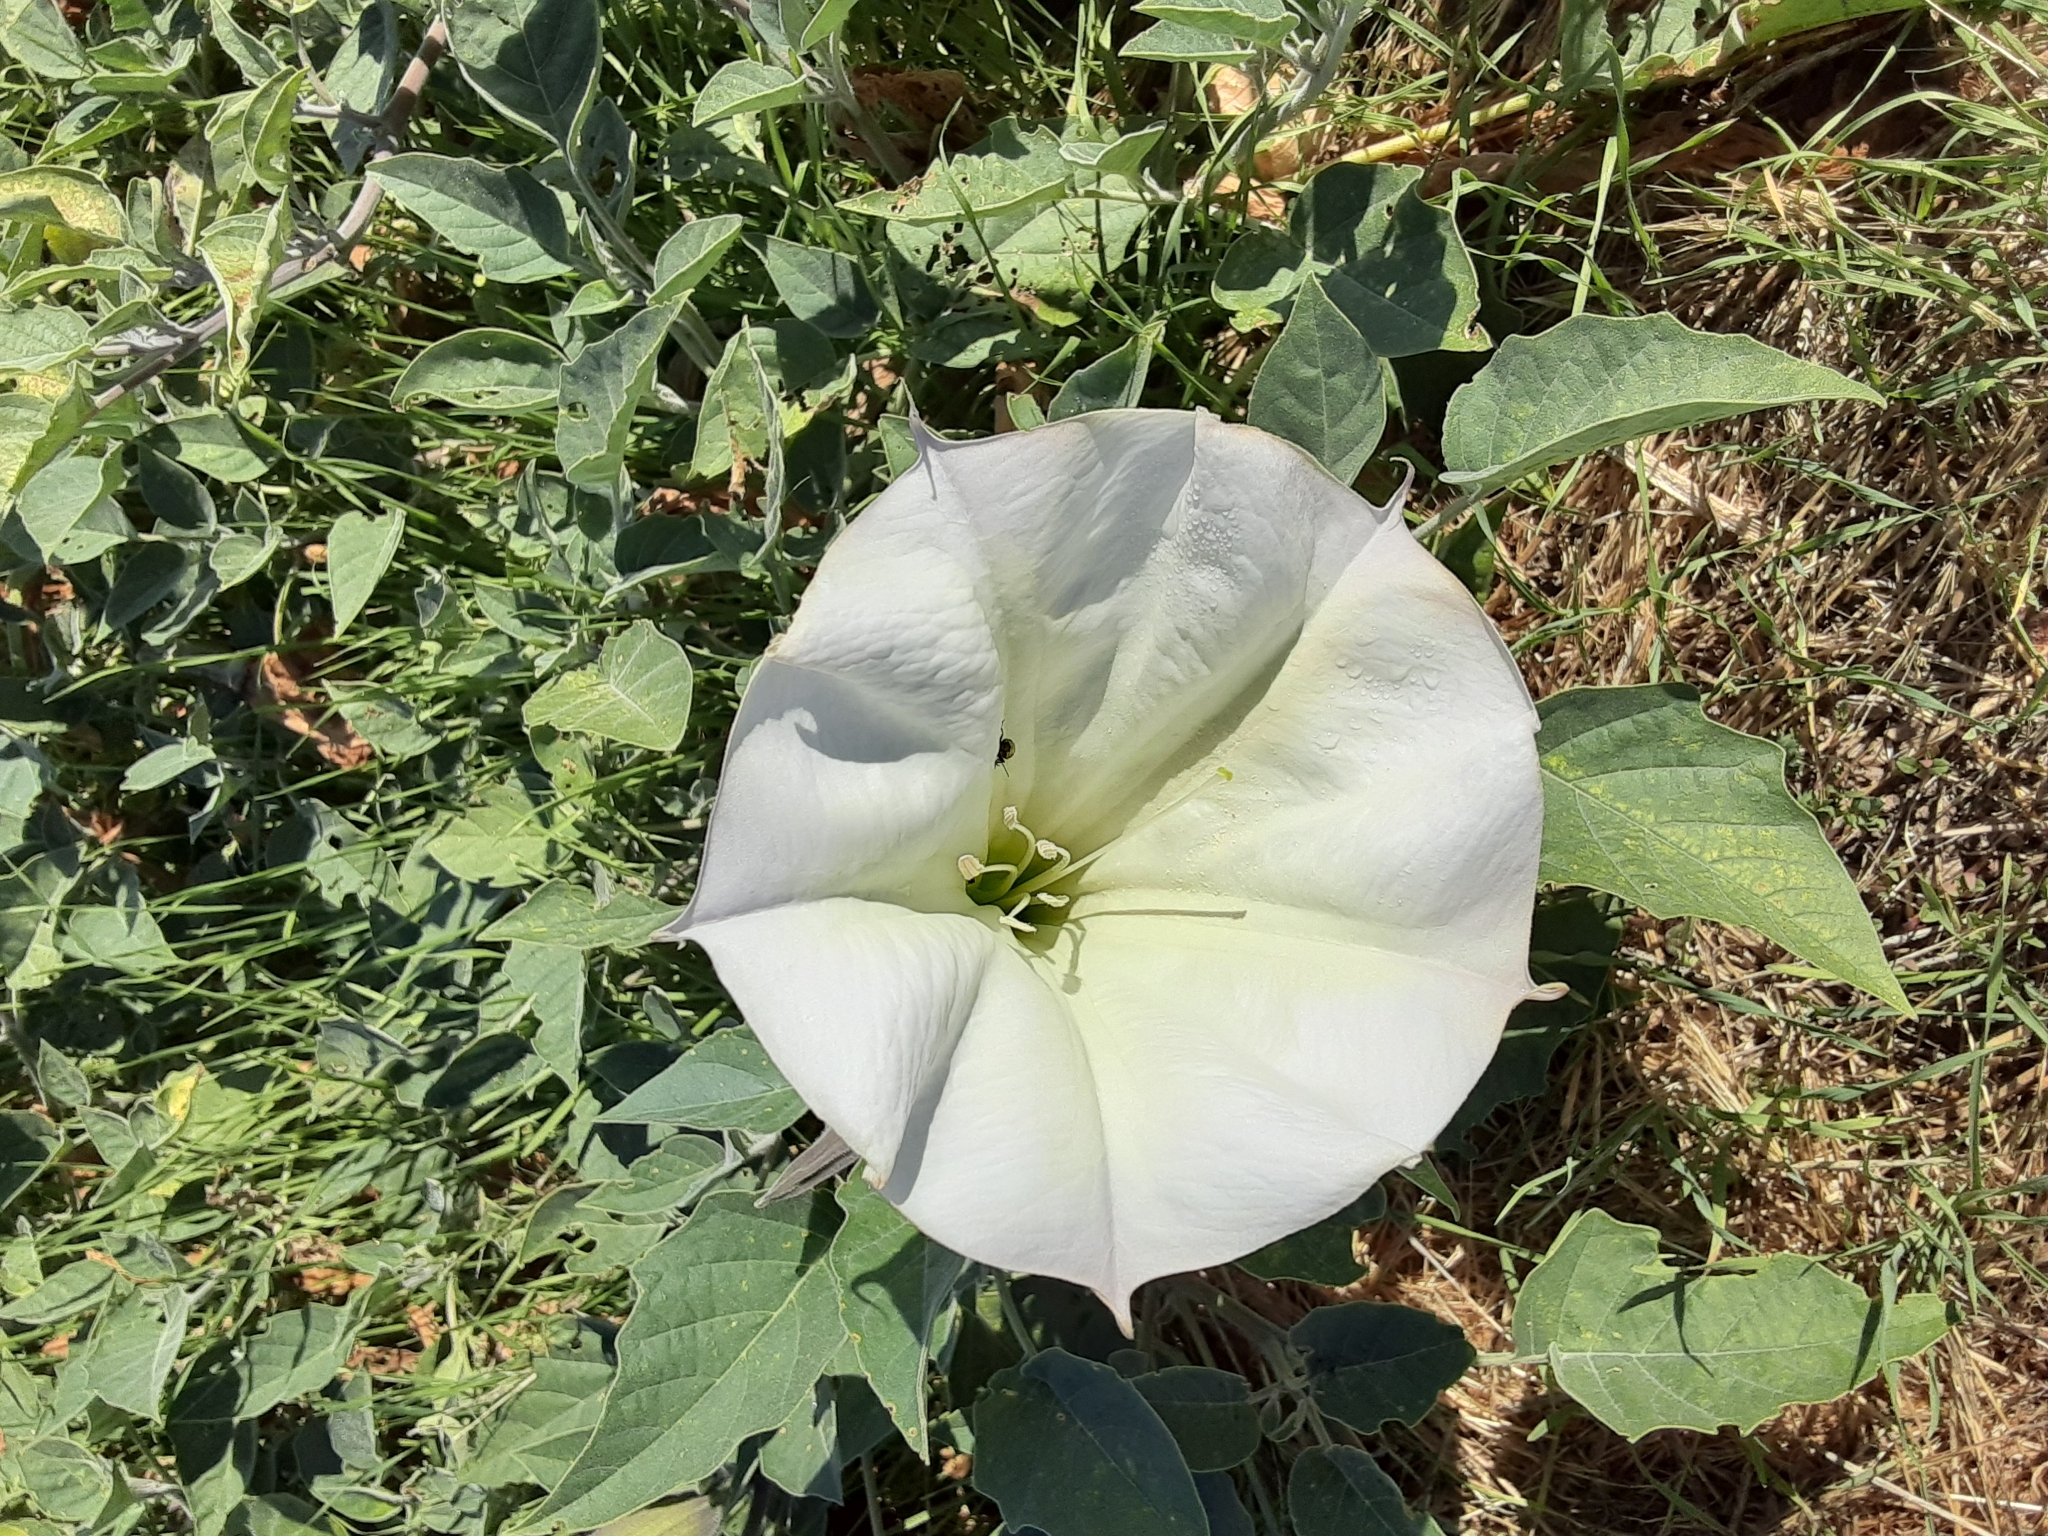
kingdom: Plantae
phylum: Tracheophyta
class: Magnoliopsida
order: Solanales
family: Solanaceae
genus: Datura
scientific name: Datura wrightii
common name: Sacred thorn-apple
